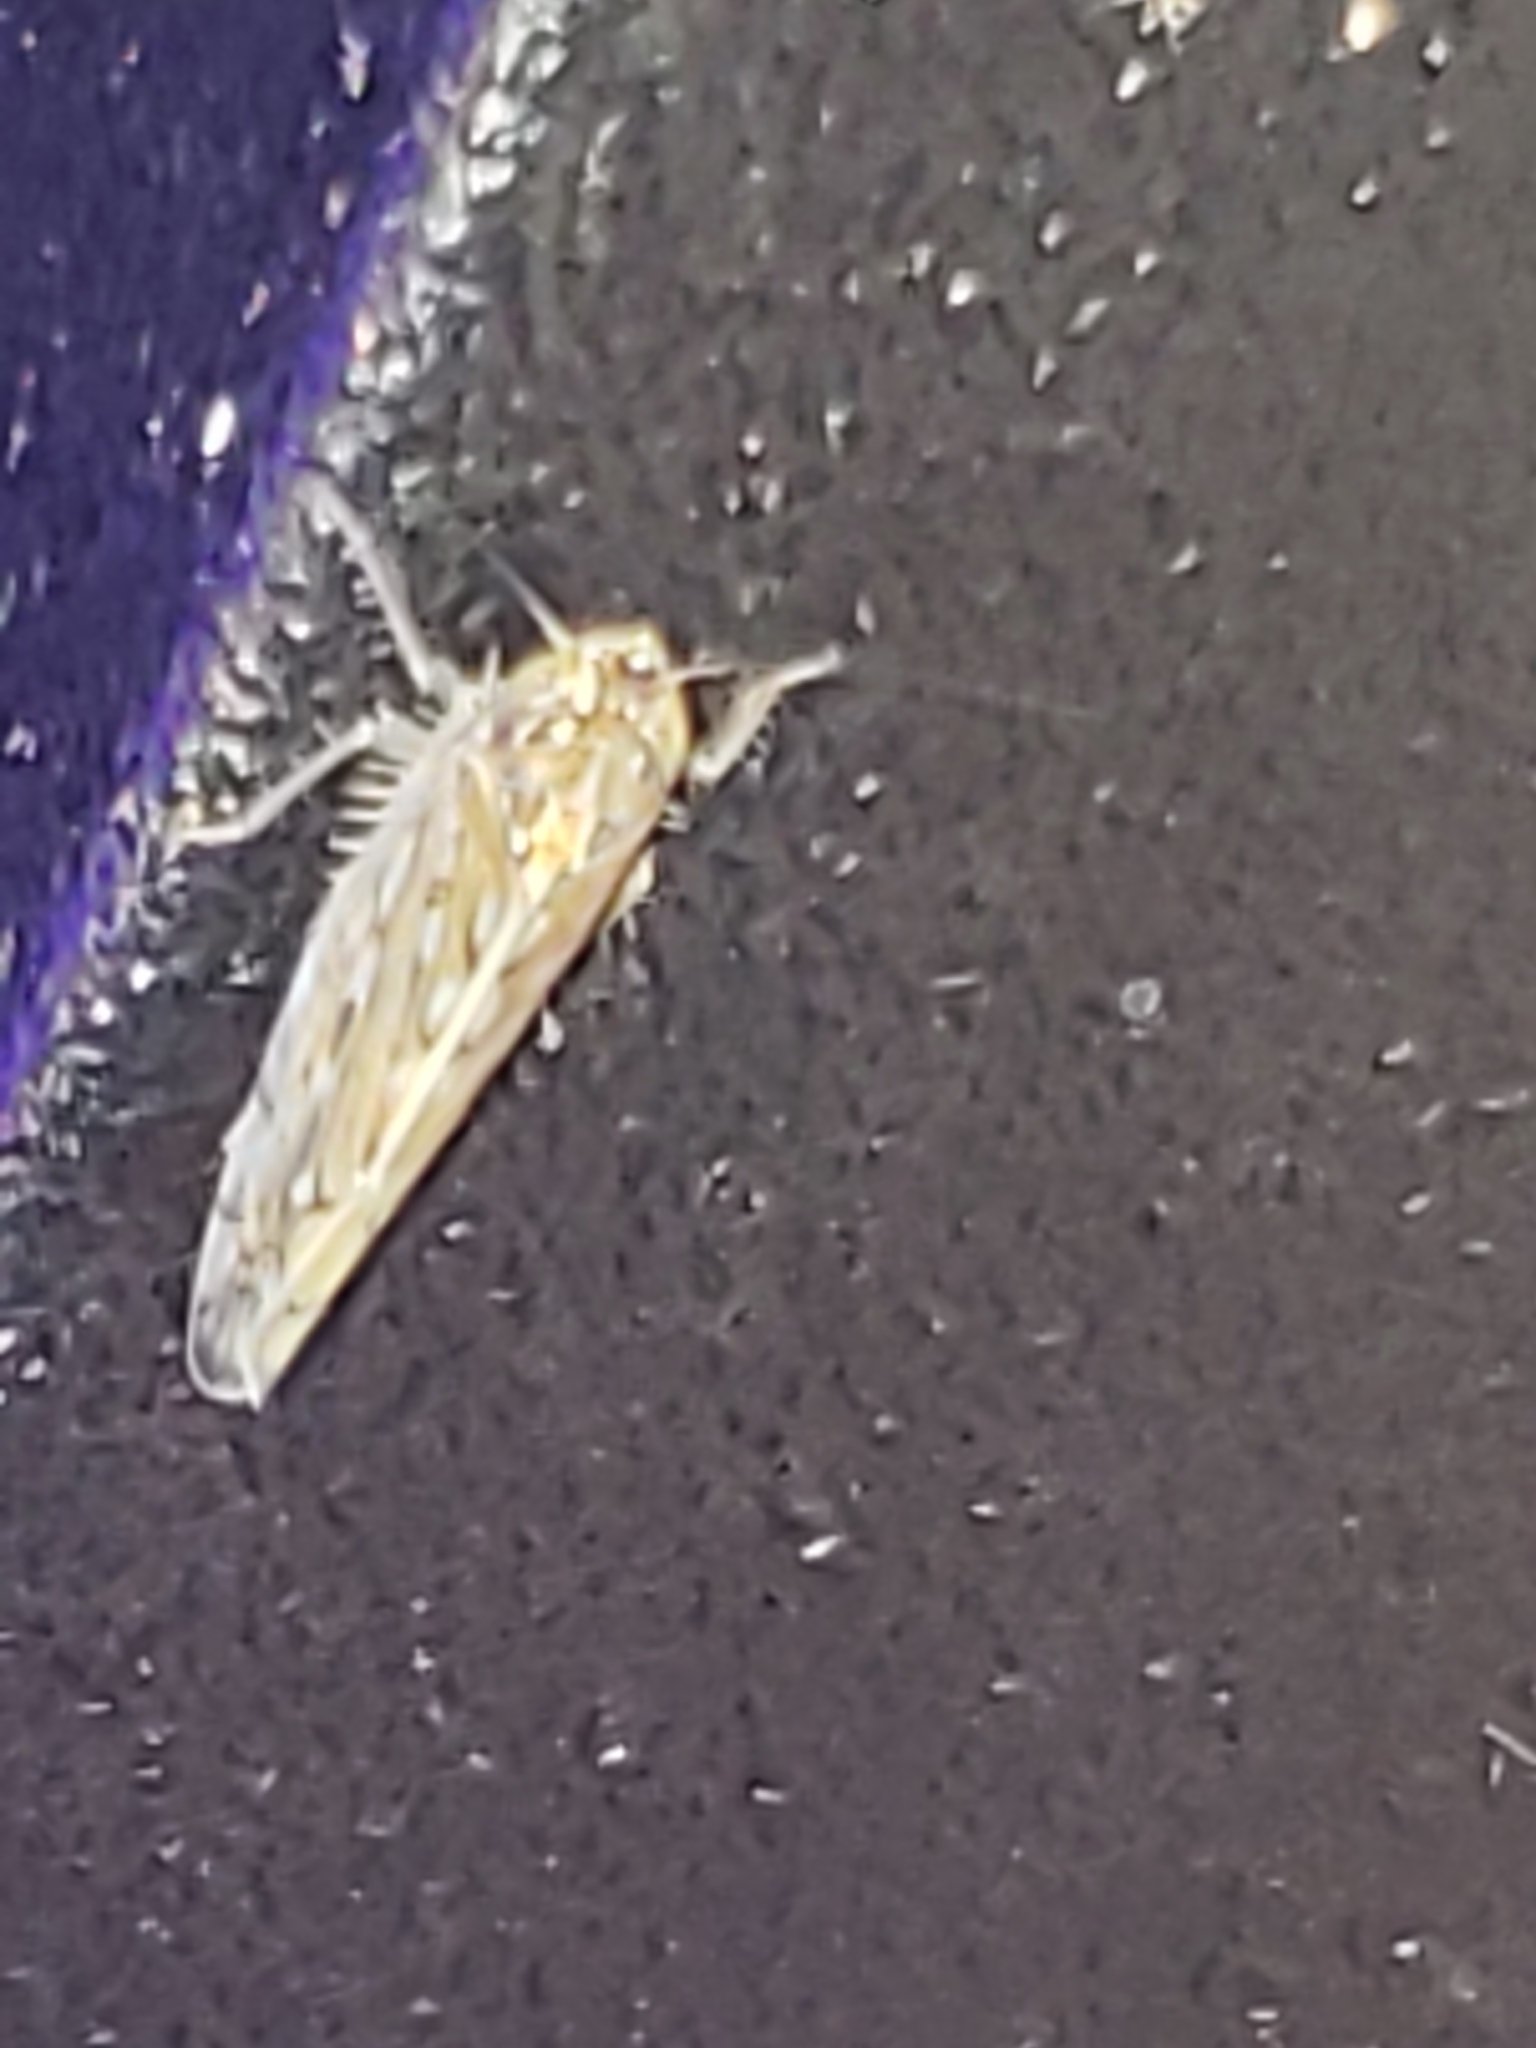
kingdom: Animalia
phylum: Arthropoda
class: Insecta
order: Hemiptera
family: Cicadellidae
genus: Osbornellus
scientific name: Osbornellus clarus
